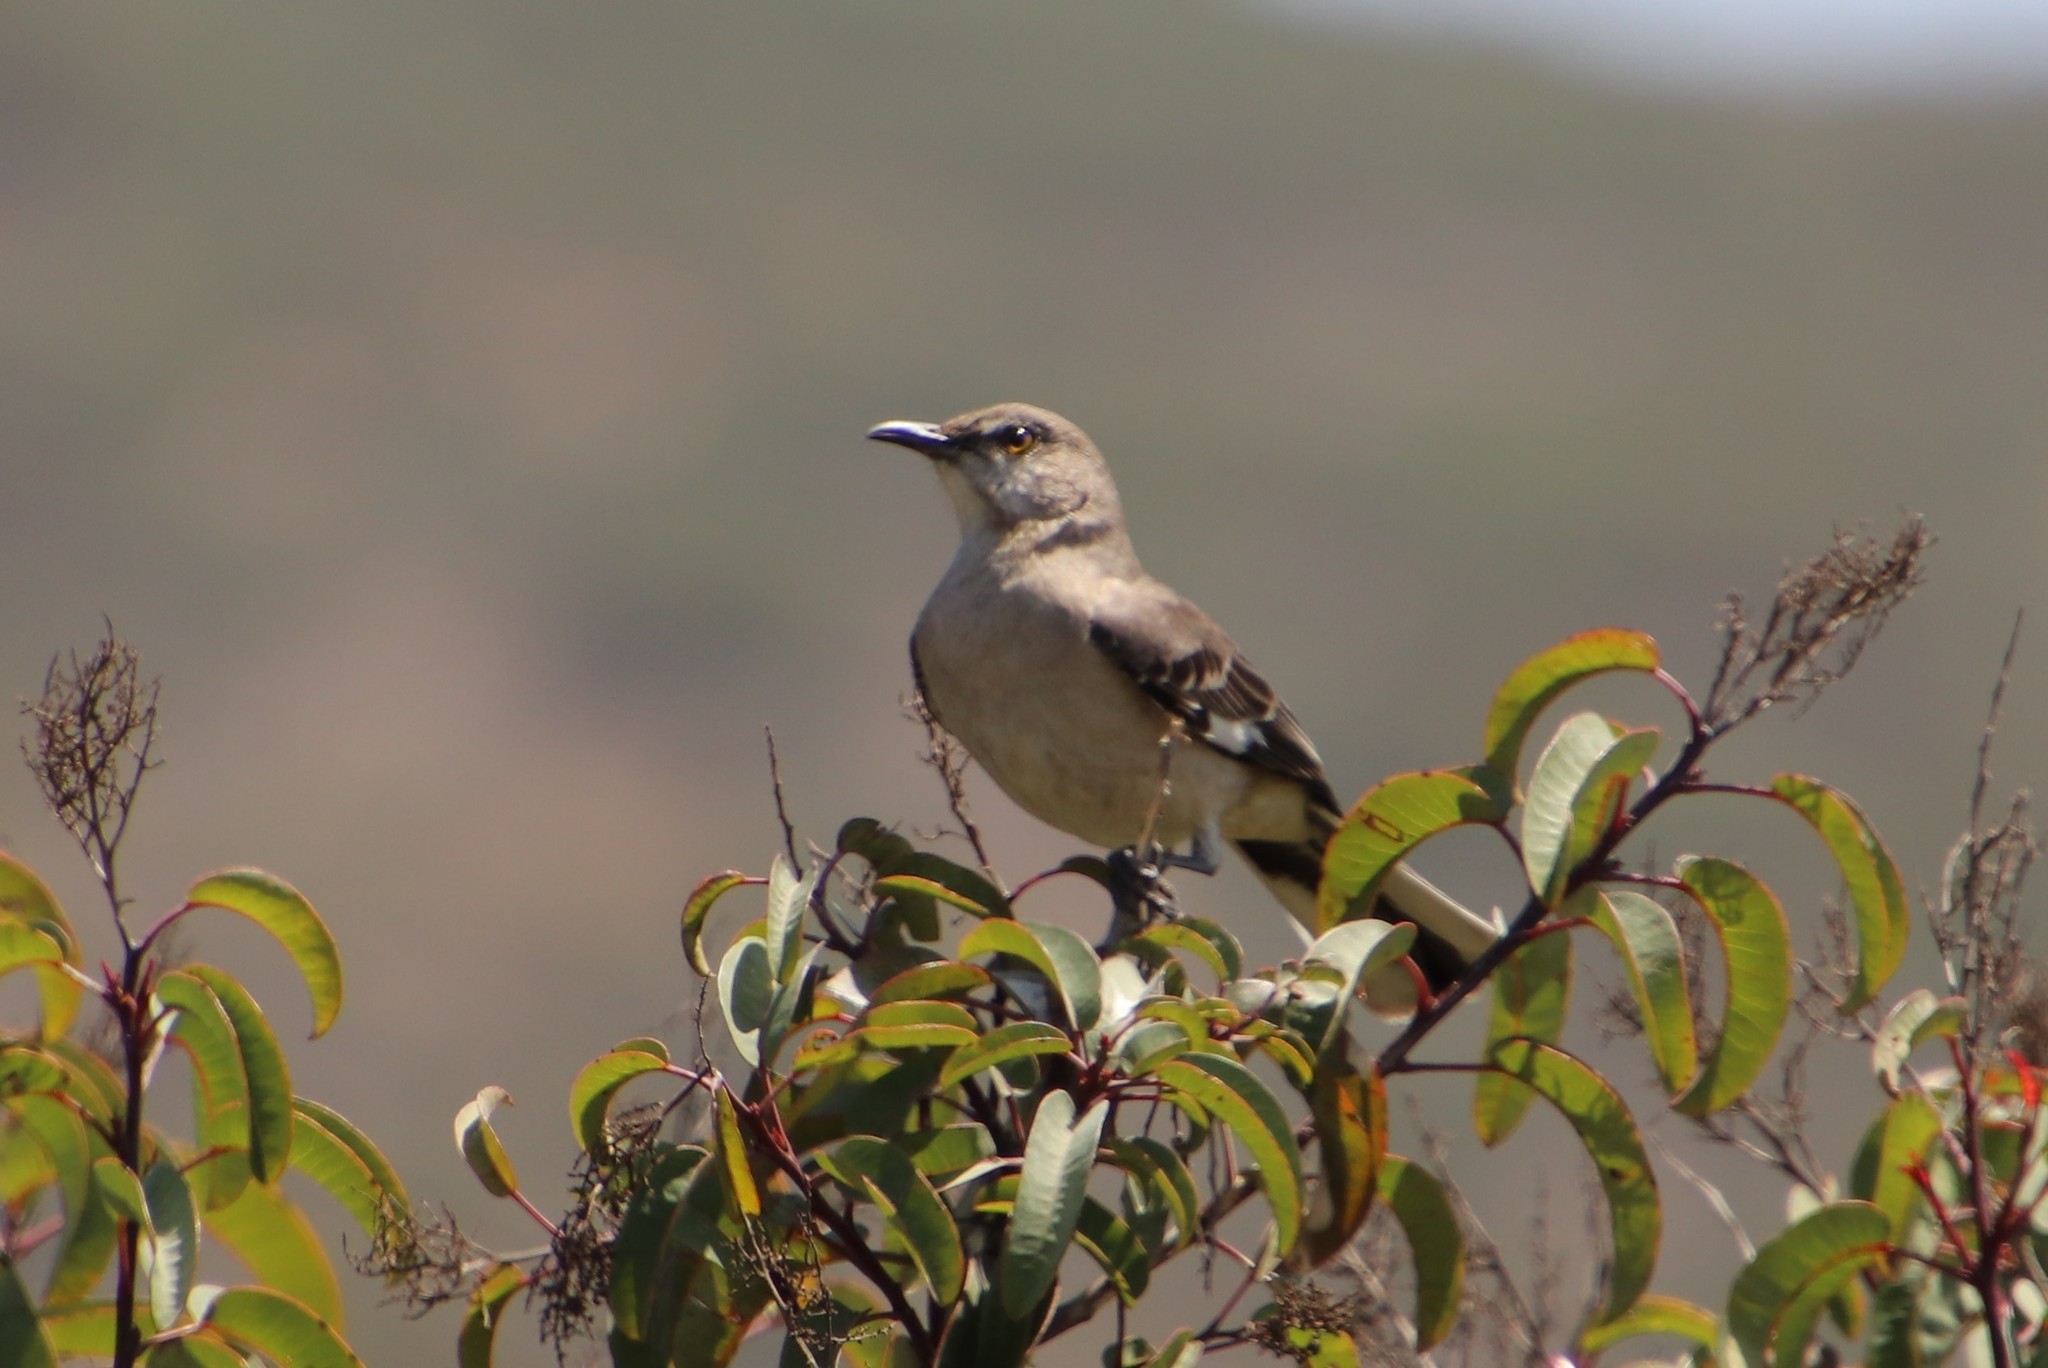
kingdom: Animalia
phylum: Chordata
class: Aves
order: Passeriformes
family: Mimidae
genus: Mimus
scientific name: Mimus polyglottos
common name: Northern mockingbird
